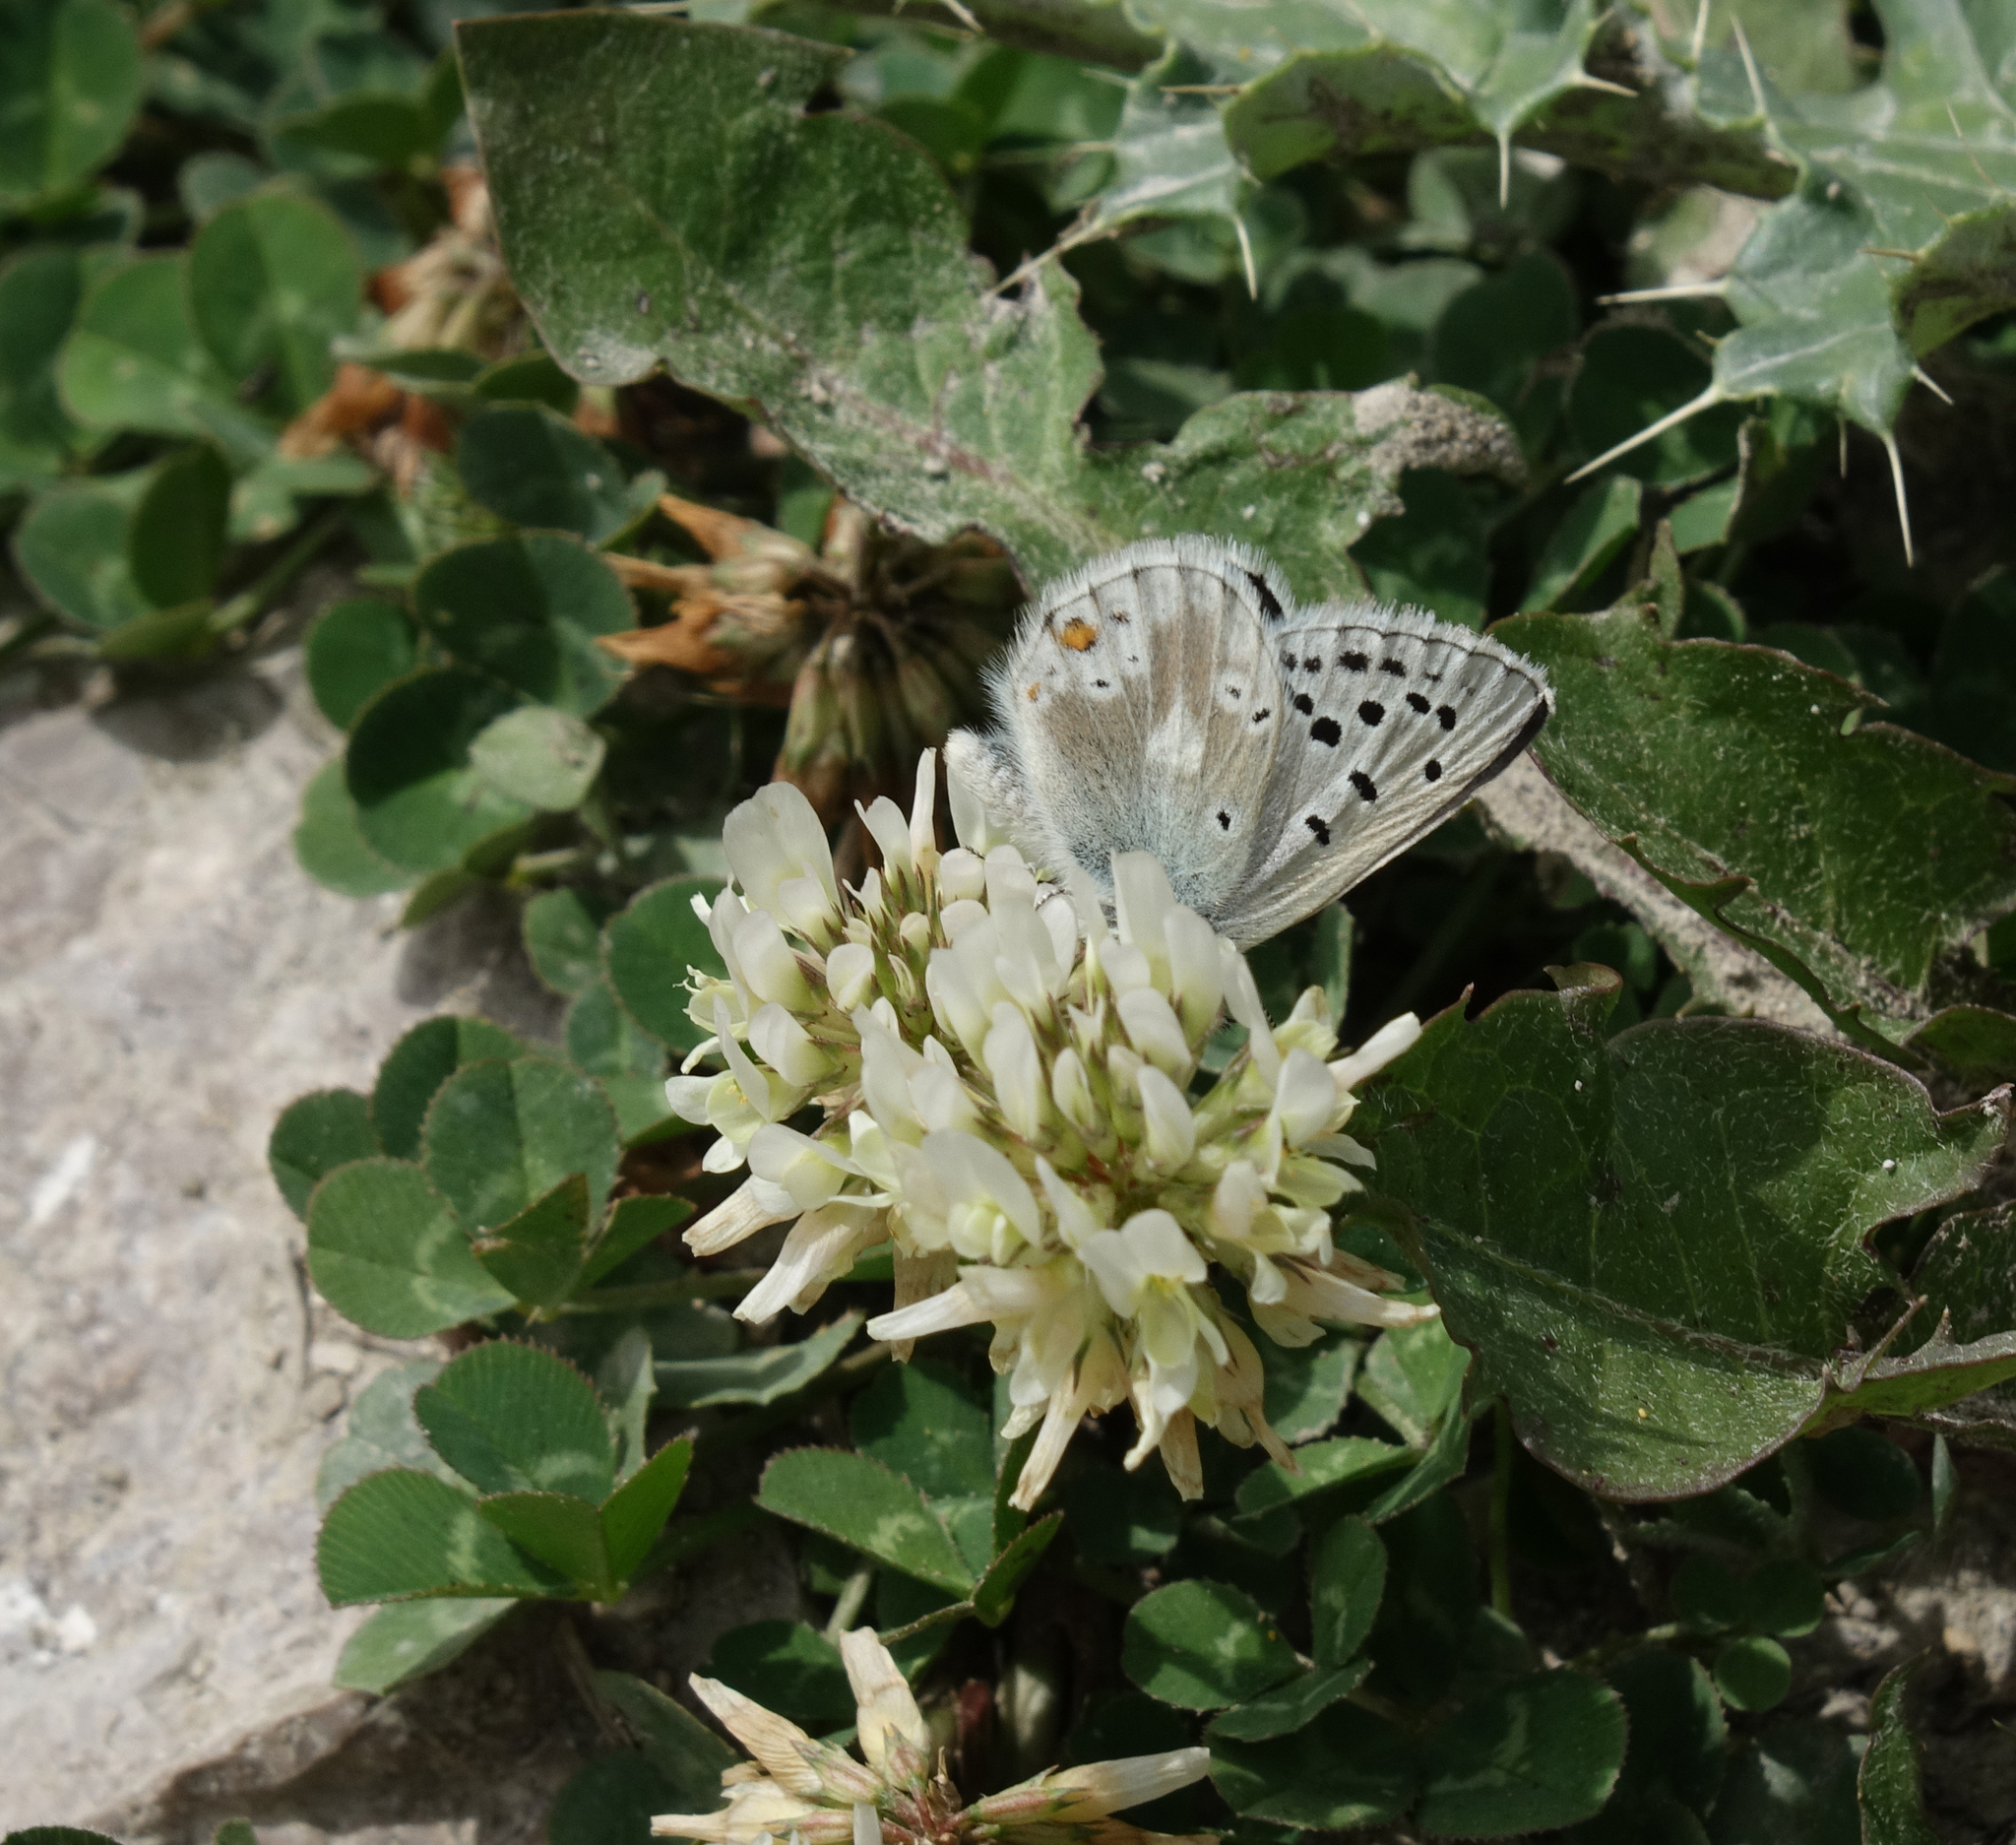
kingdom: Plantae
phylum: Tracheophyta
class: Magnoliopsida
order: Fabales
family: Fabaceae
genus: Trifolium
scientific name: Trifolium repens
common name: White clover
